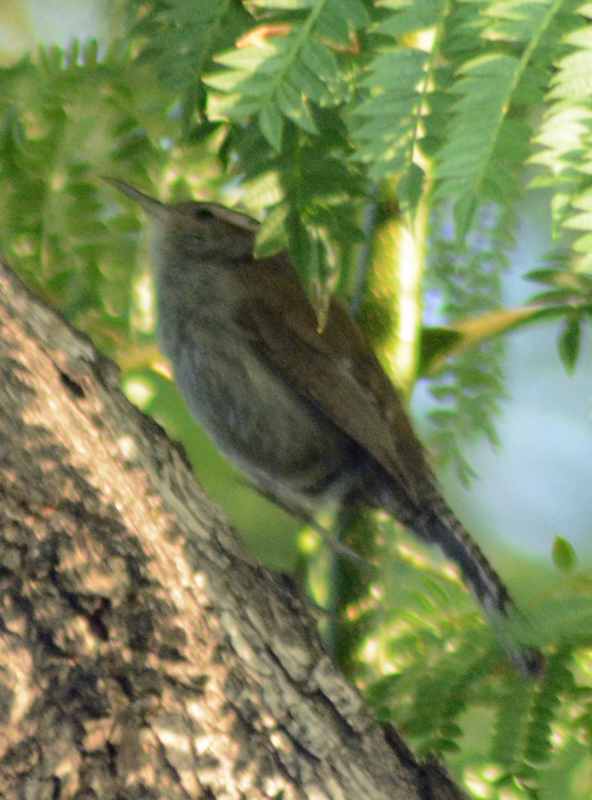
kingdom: Animalia
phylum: Chordata
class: Aves
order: Passeriformes
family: Troglodytidae
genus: Thryomanes
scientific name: Thryomanes bewickii
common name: Bewick's wren
